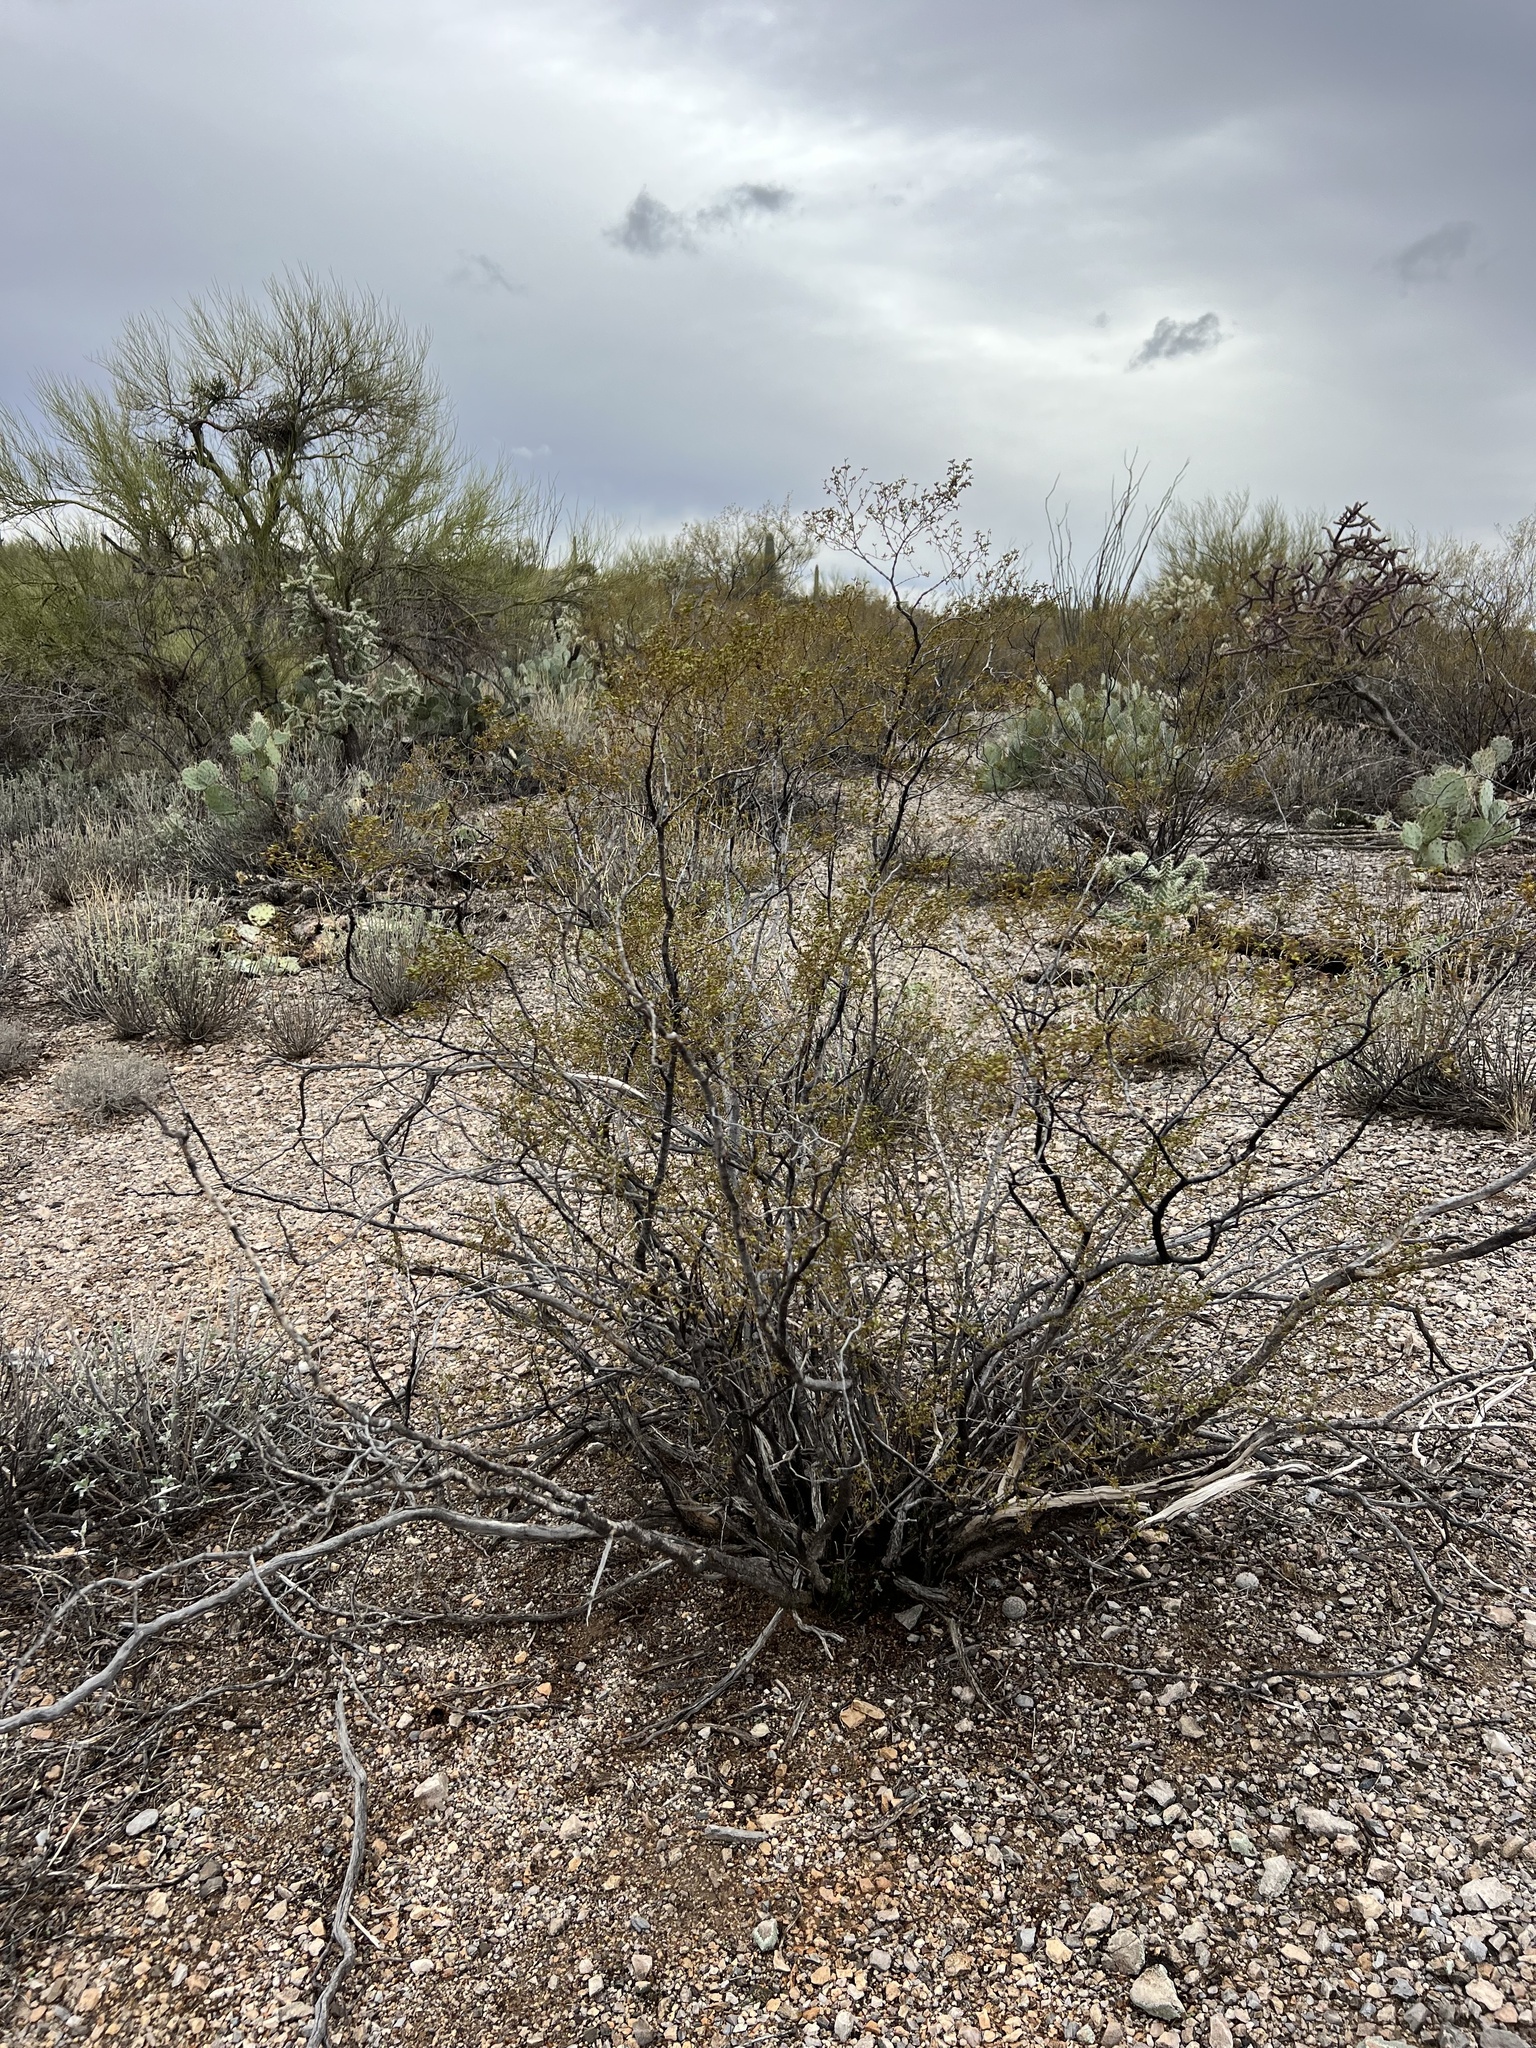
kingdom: Plantae
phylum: Tracheophyta
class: Magnoliopsida
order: Zygophyllales
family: Zygophyllaceae
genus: Larrea
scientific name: Larrea tridentata
